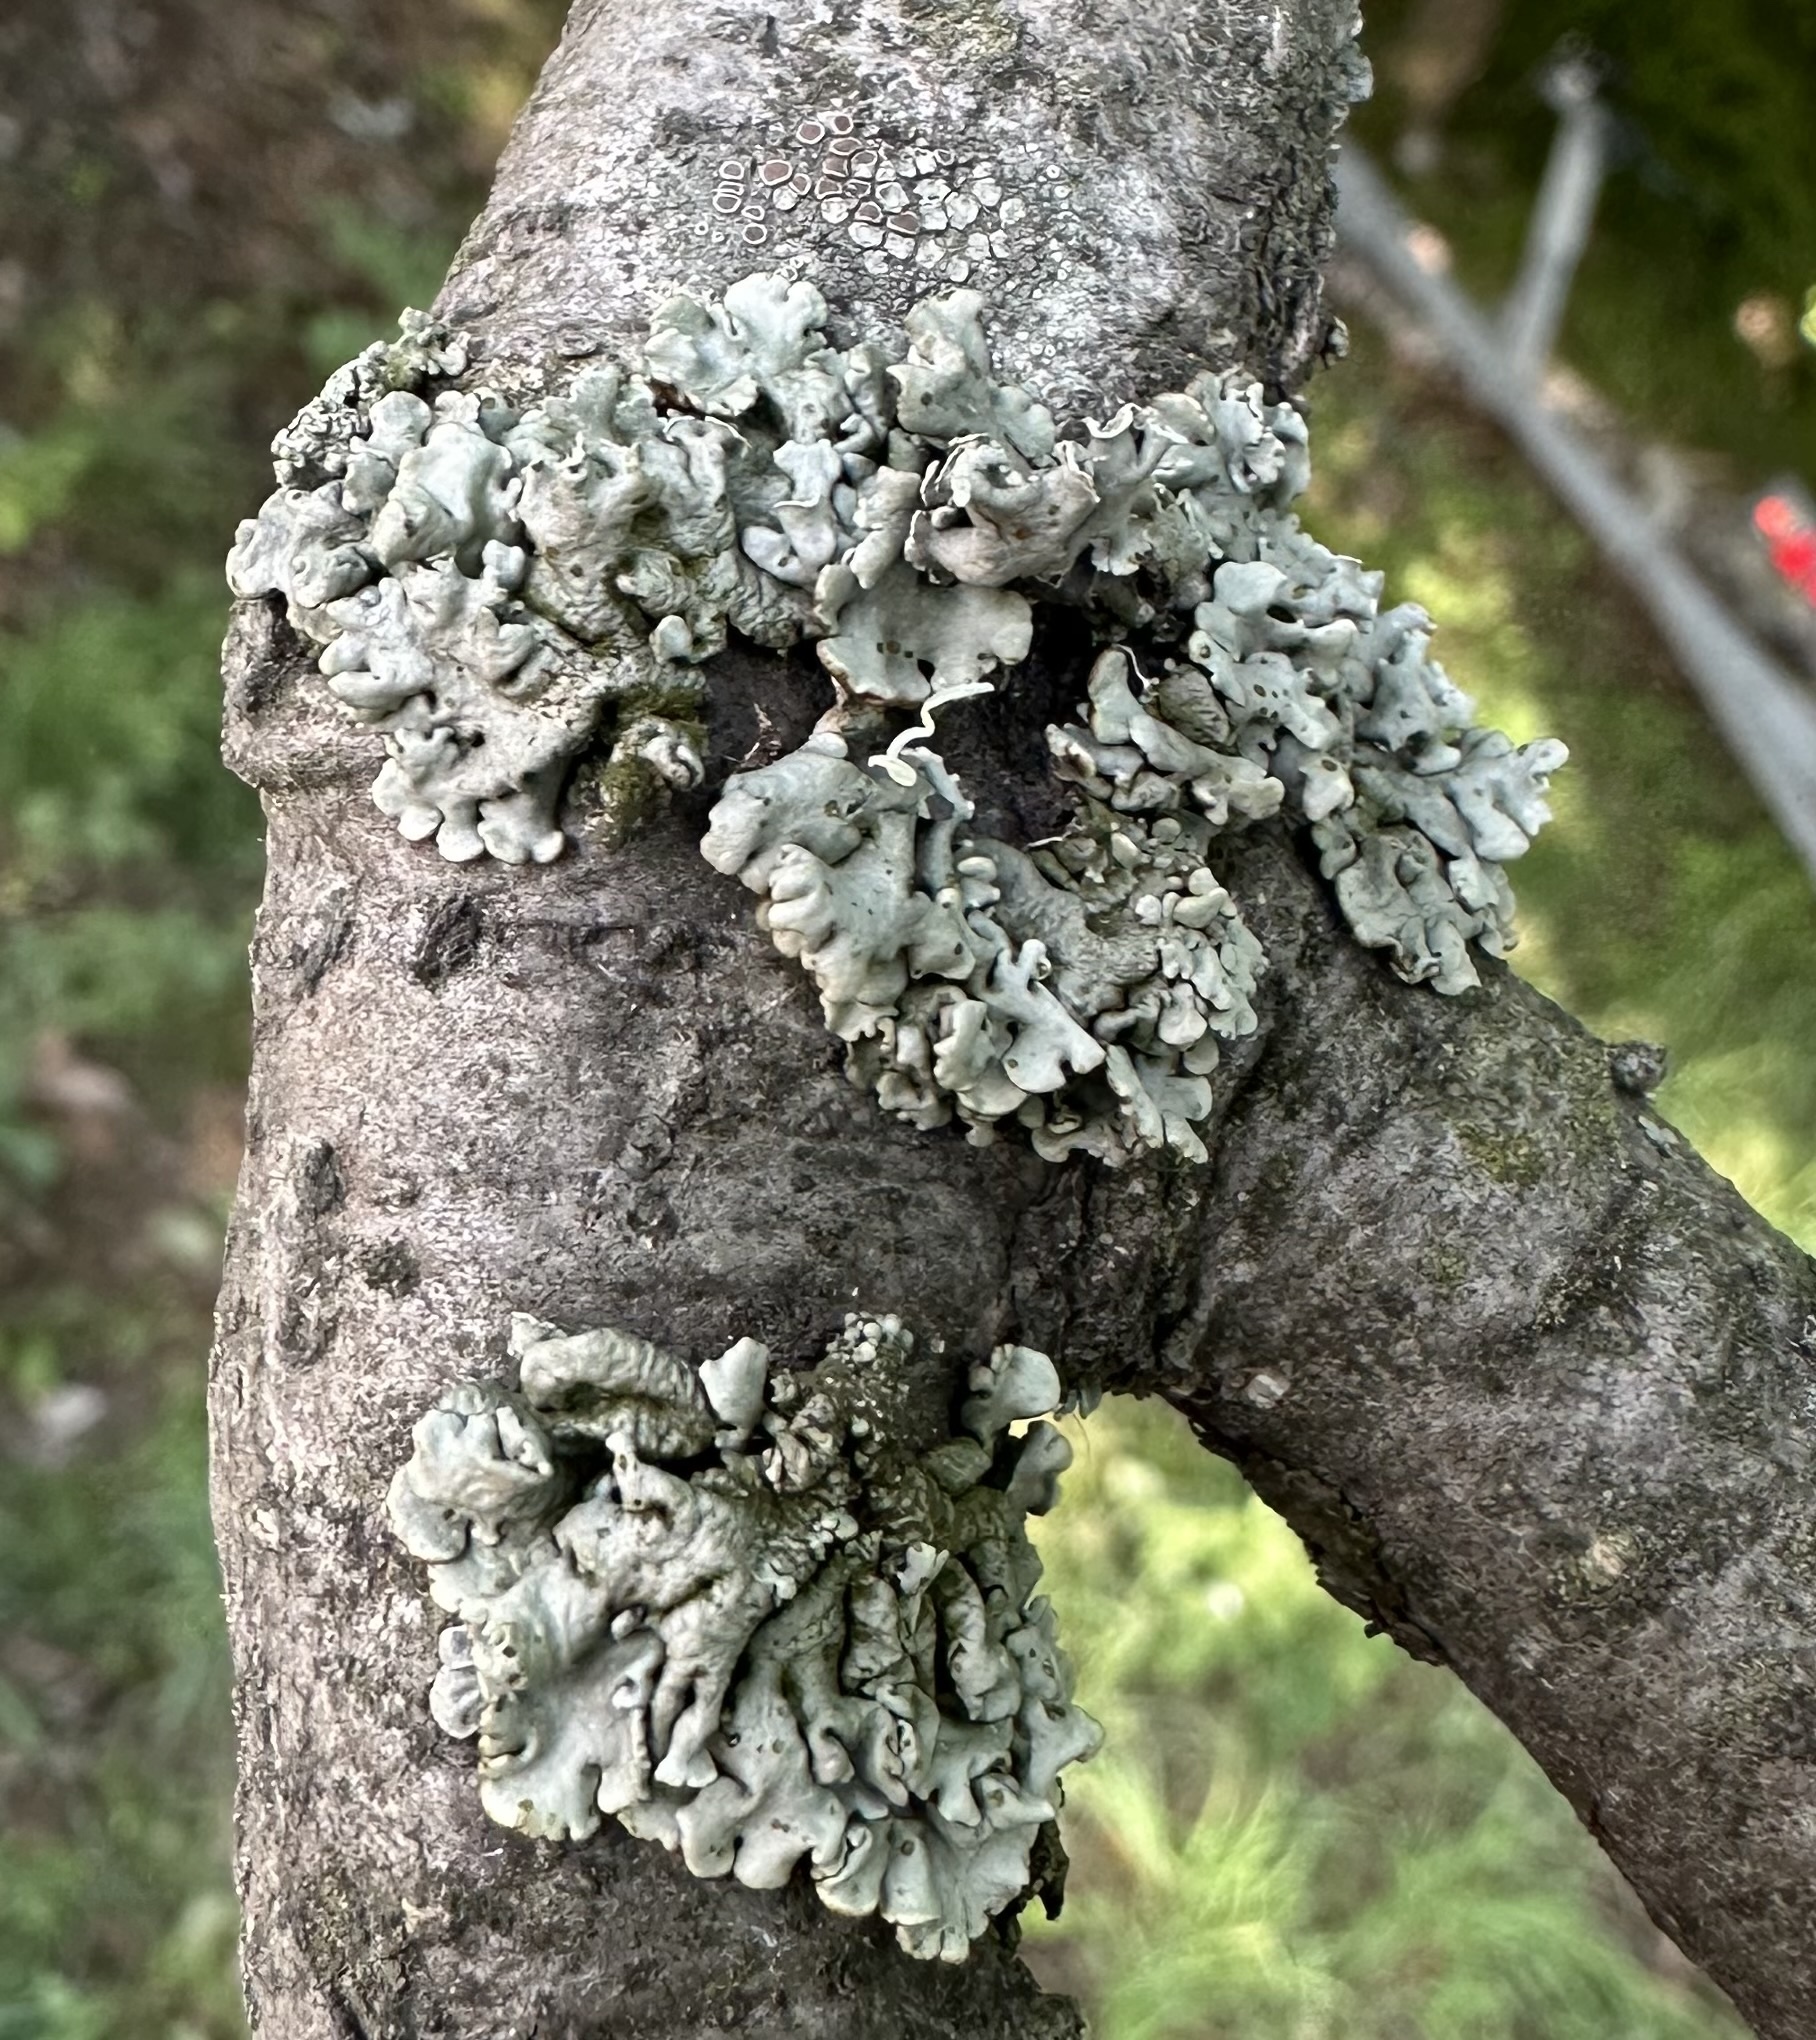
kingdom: Fungi
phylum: Ascomycota
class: Lecanoromycetes
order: Lecanorales
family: Parmeliaceae
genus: Hypogymnia
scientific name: Hypogymnia physodes
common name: Dark crottle
